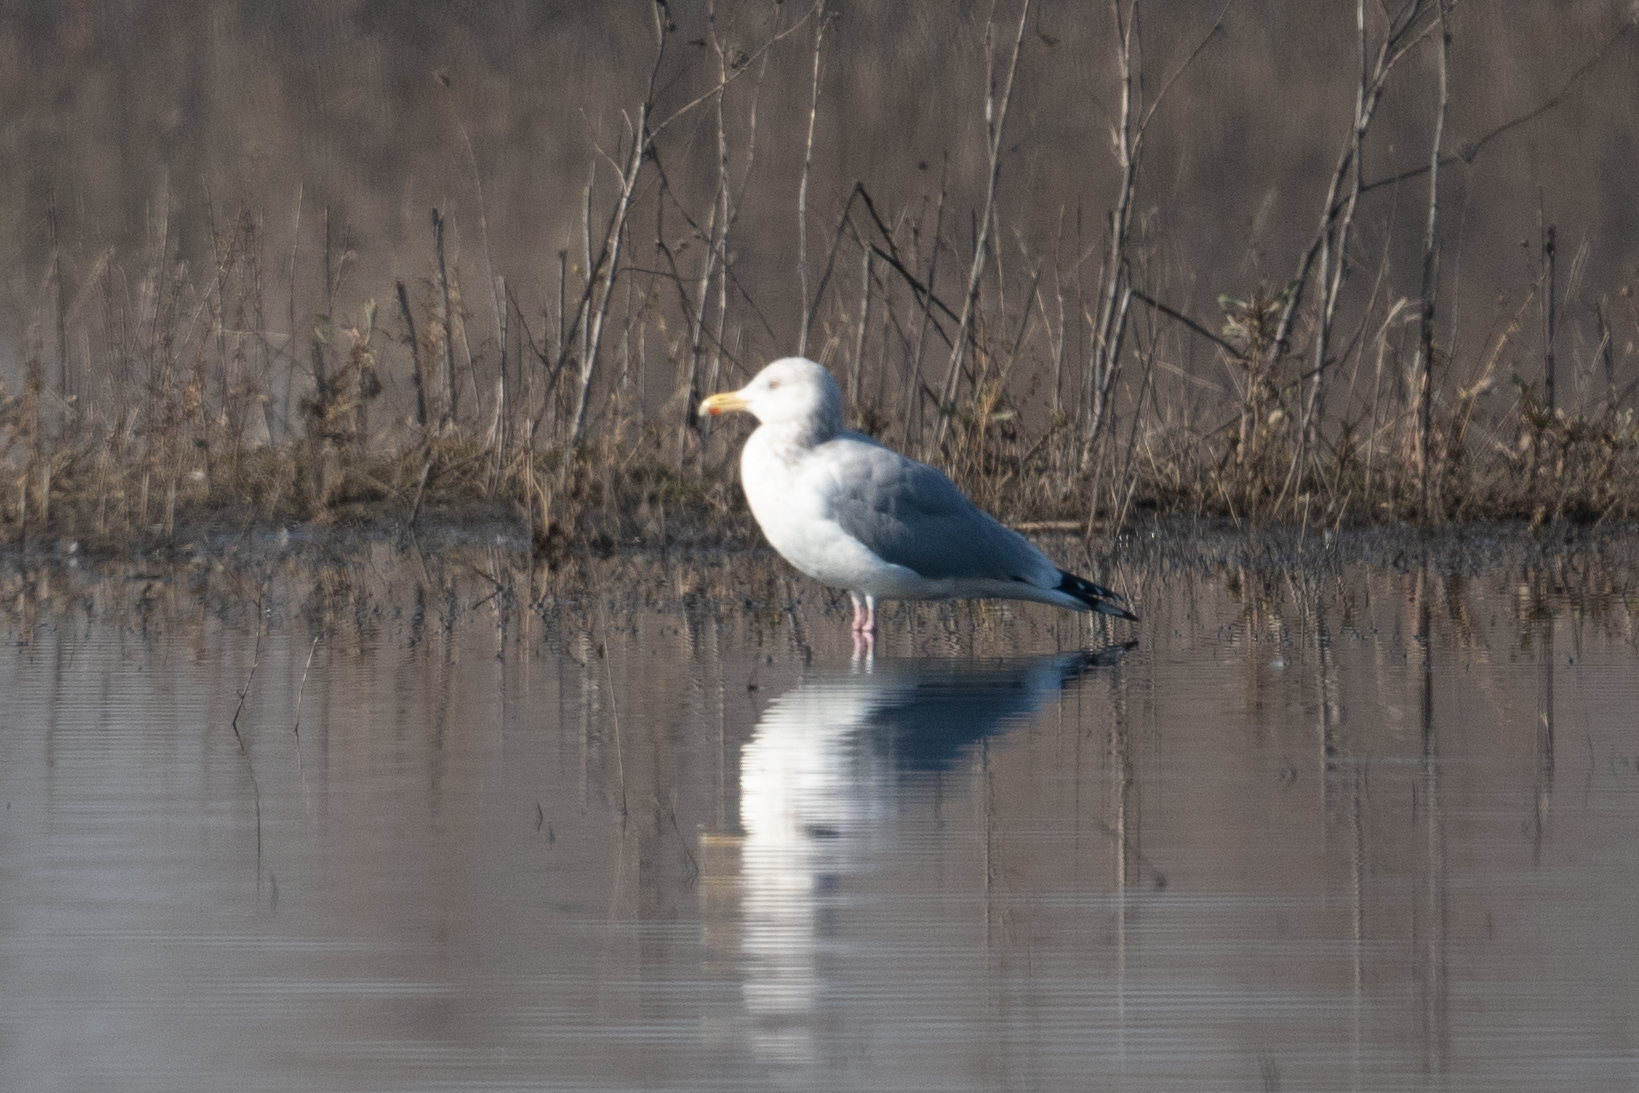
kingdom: Animalia
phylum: Chordata
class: Aves
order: Charadriiformes
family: Laridae
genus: Larus
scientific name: Larus argentatus
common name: Herring gull
